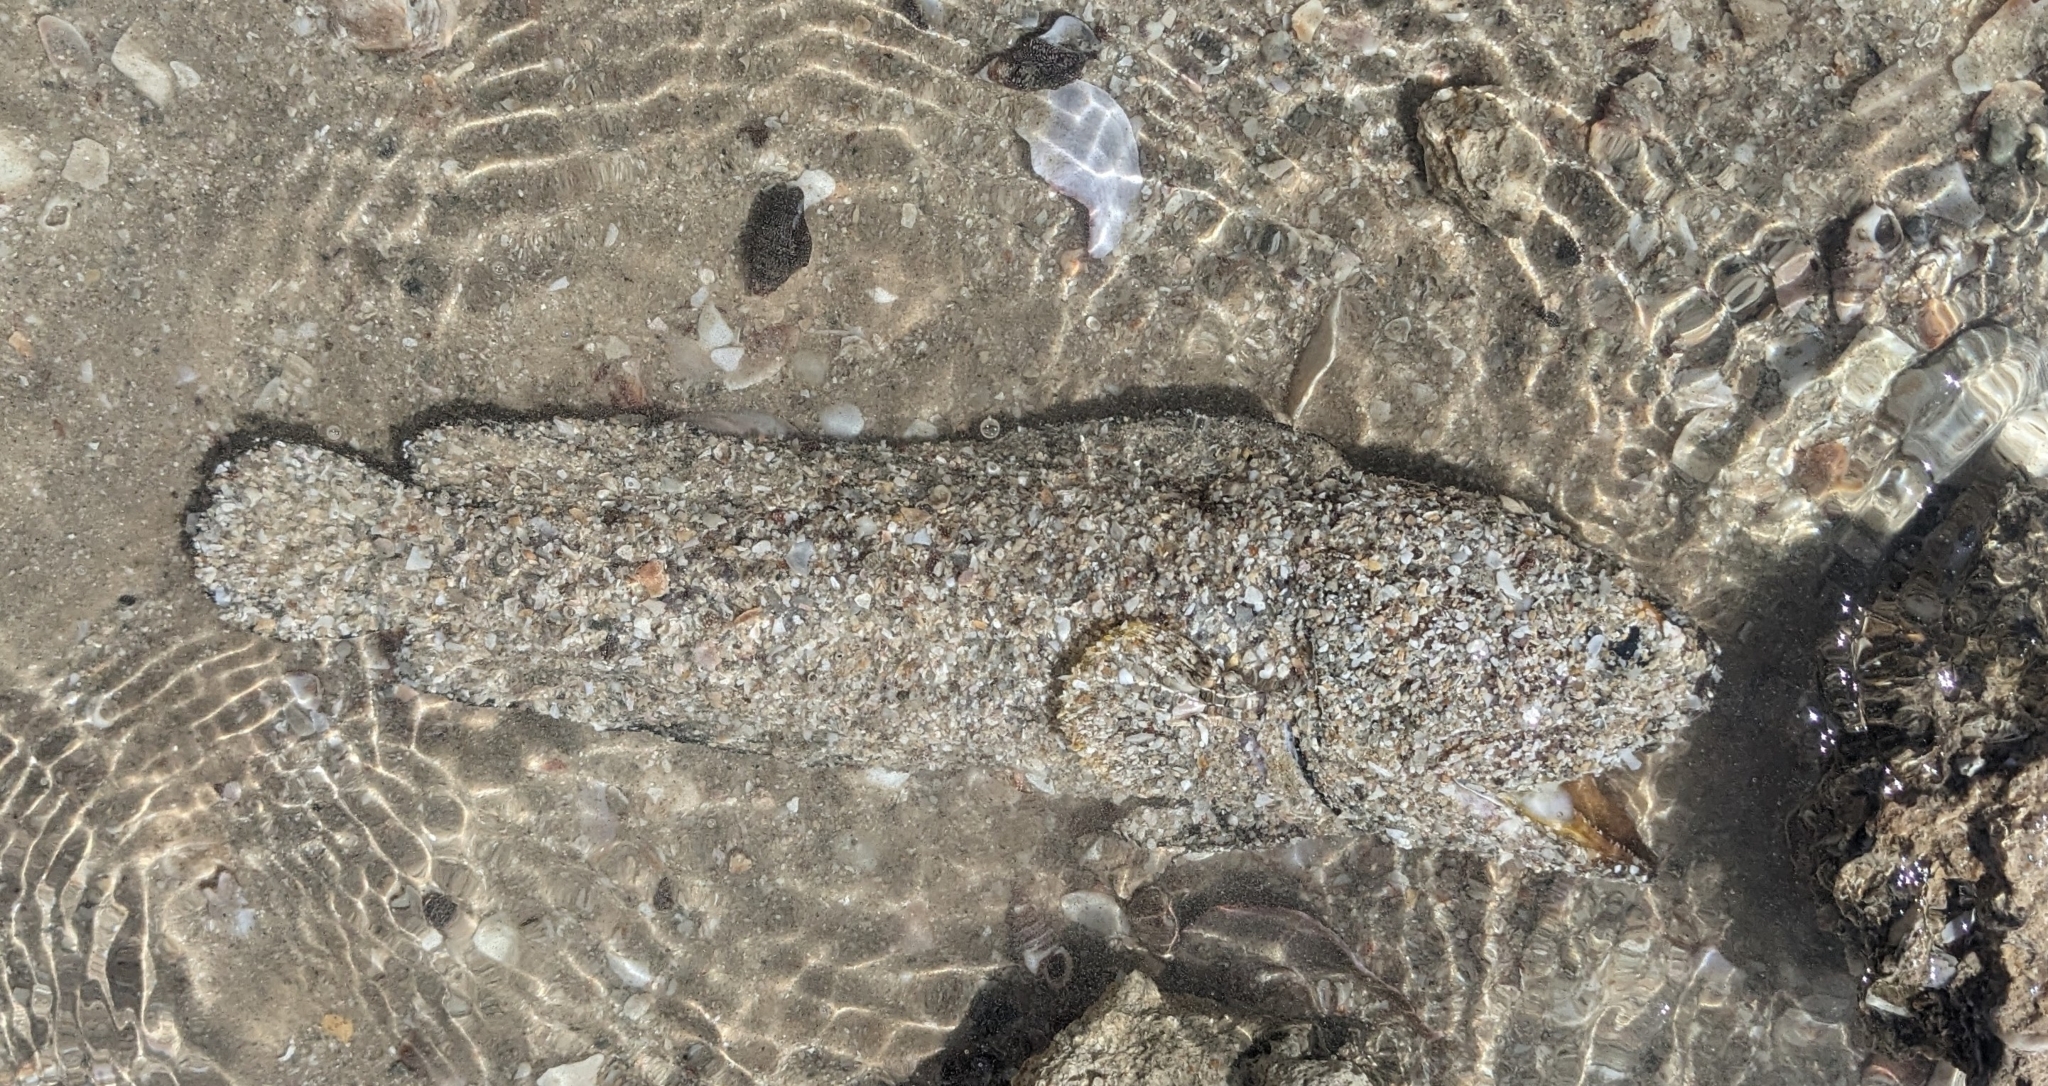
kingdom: Animalia
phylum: Chordata
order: Perciformes
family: Opistognathidae
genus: Opistognathus
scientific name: Opistognathus
